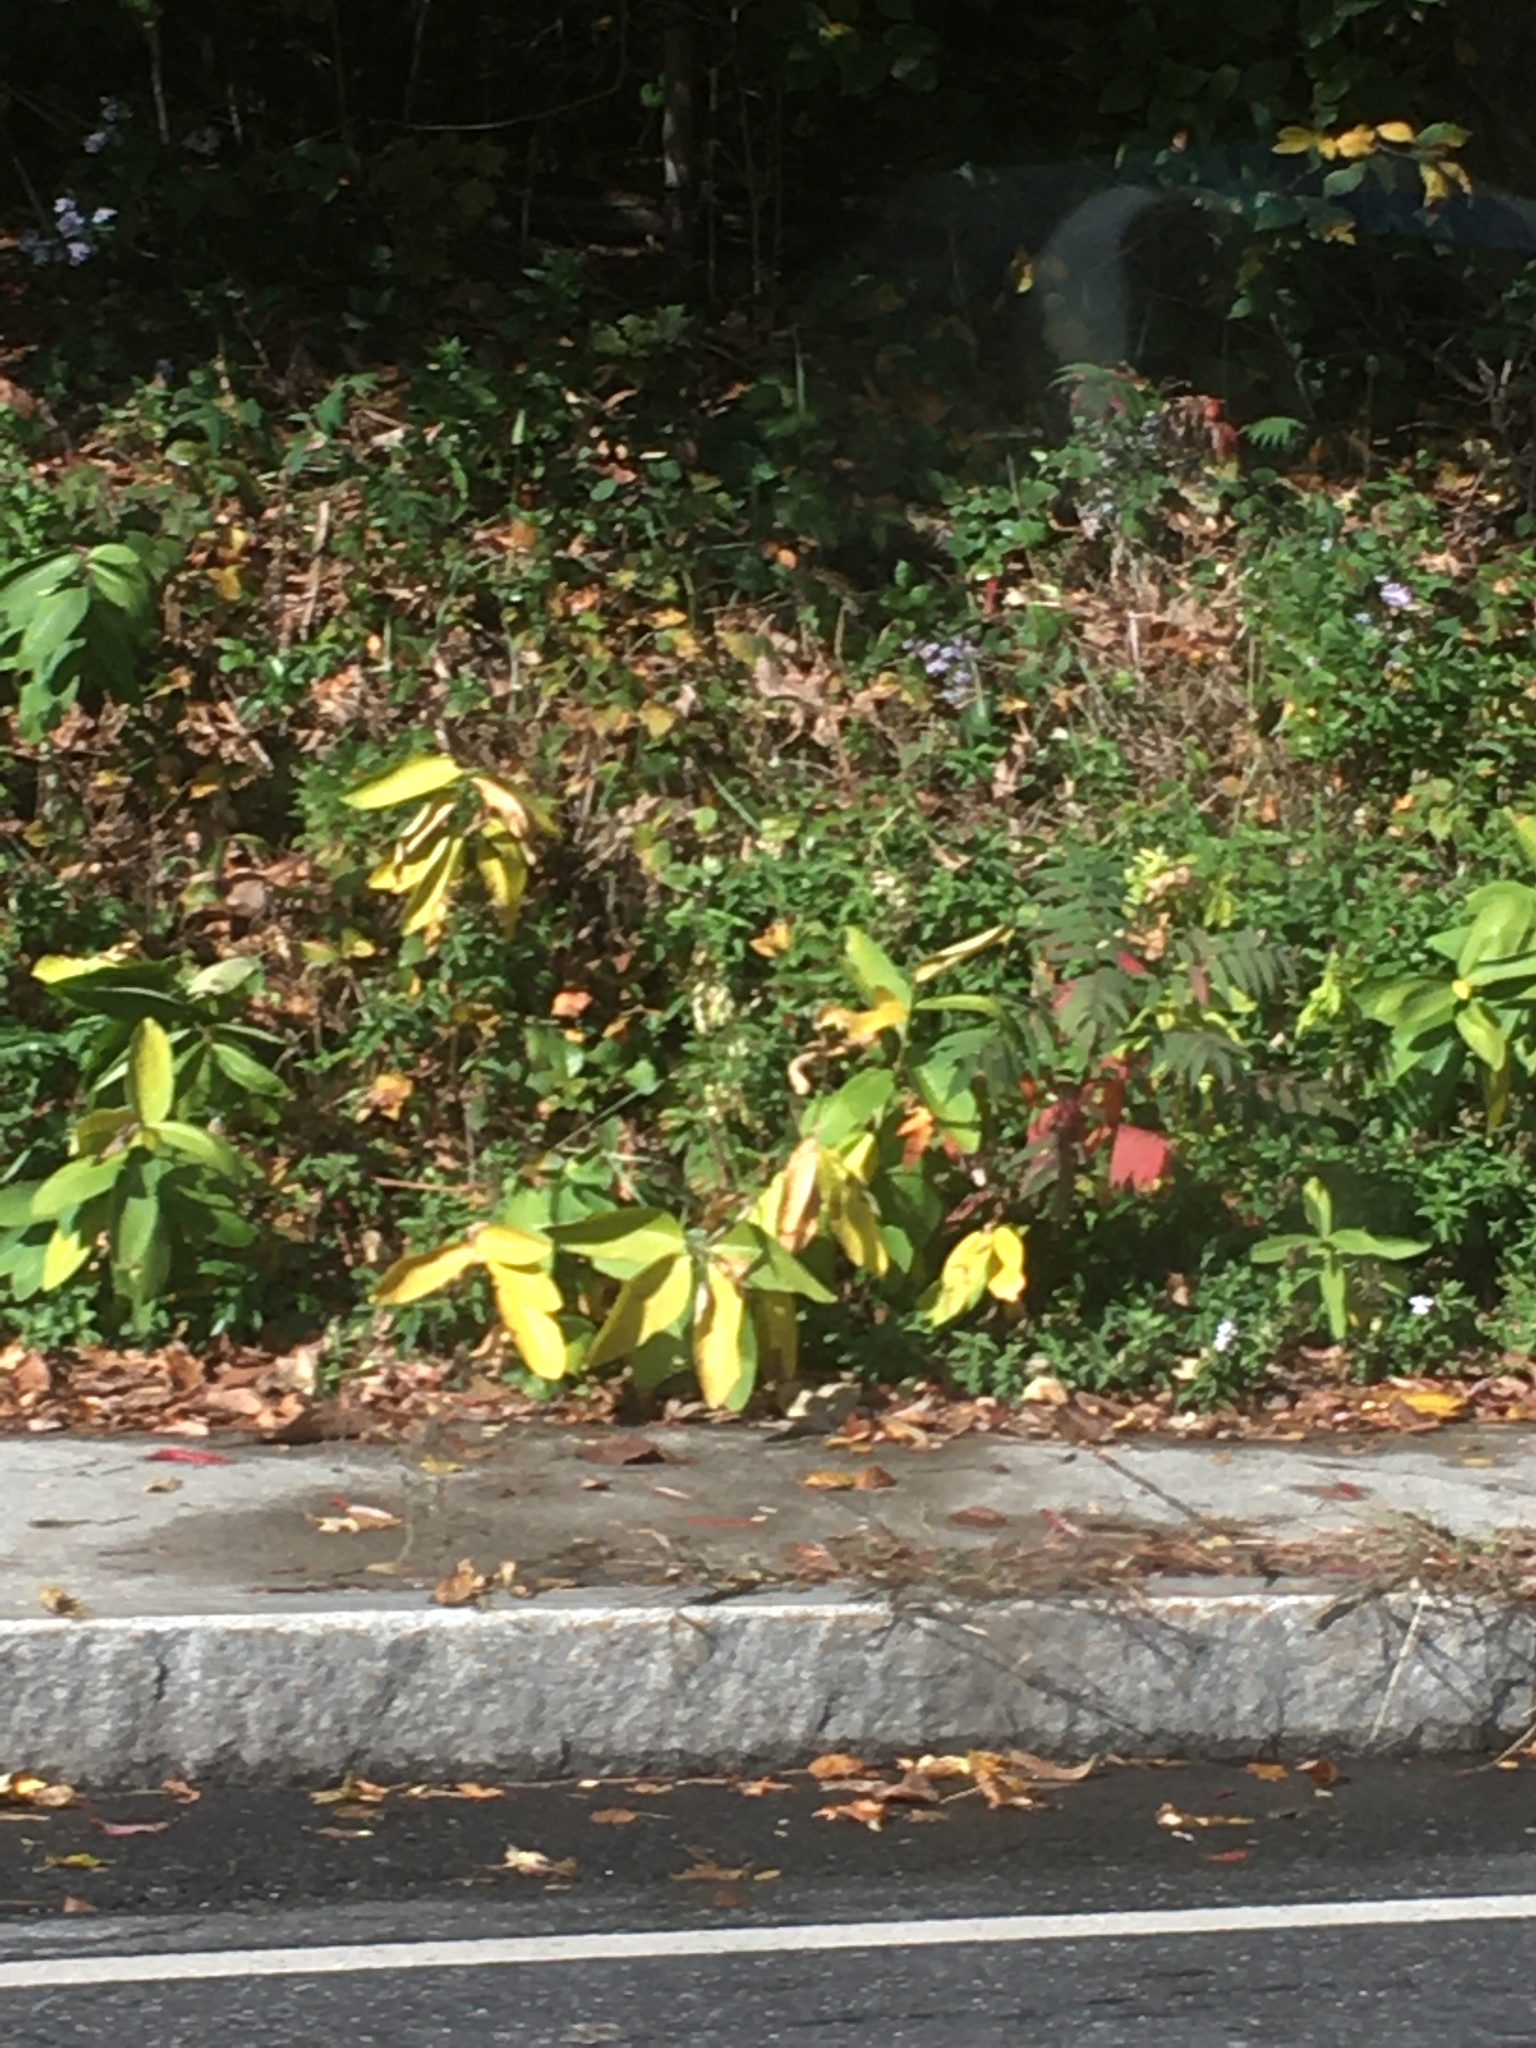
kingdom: Plantae
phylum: Tracheophyta
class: Magnoliopsida
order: Gentianales
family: Apocynaceae
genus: Asclepias
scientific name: Asclepias syriaca
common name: Common milkweed
